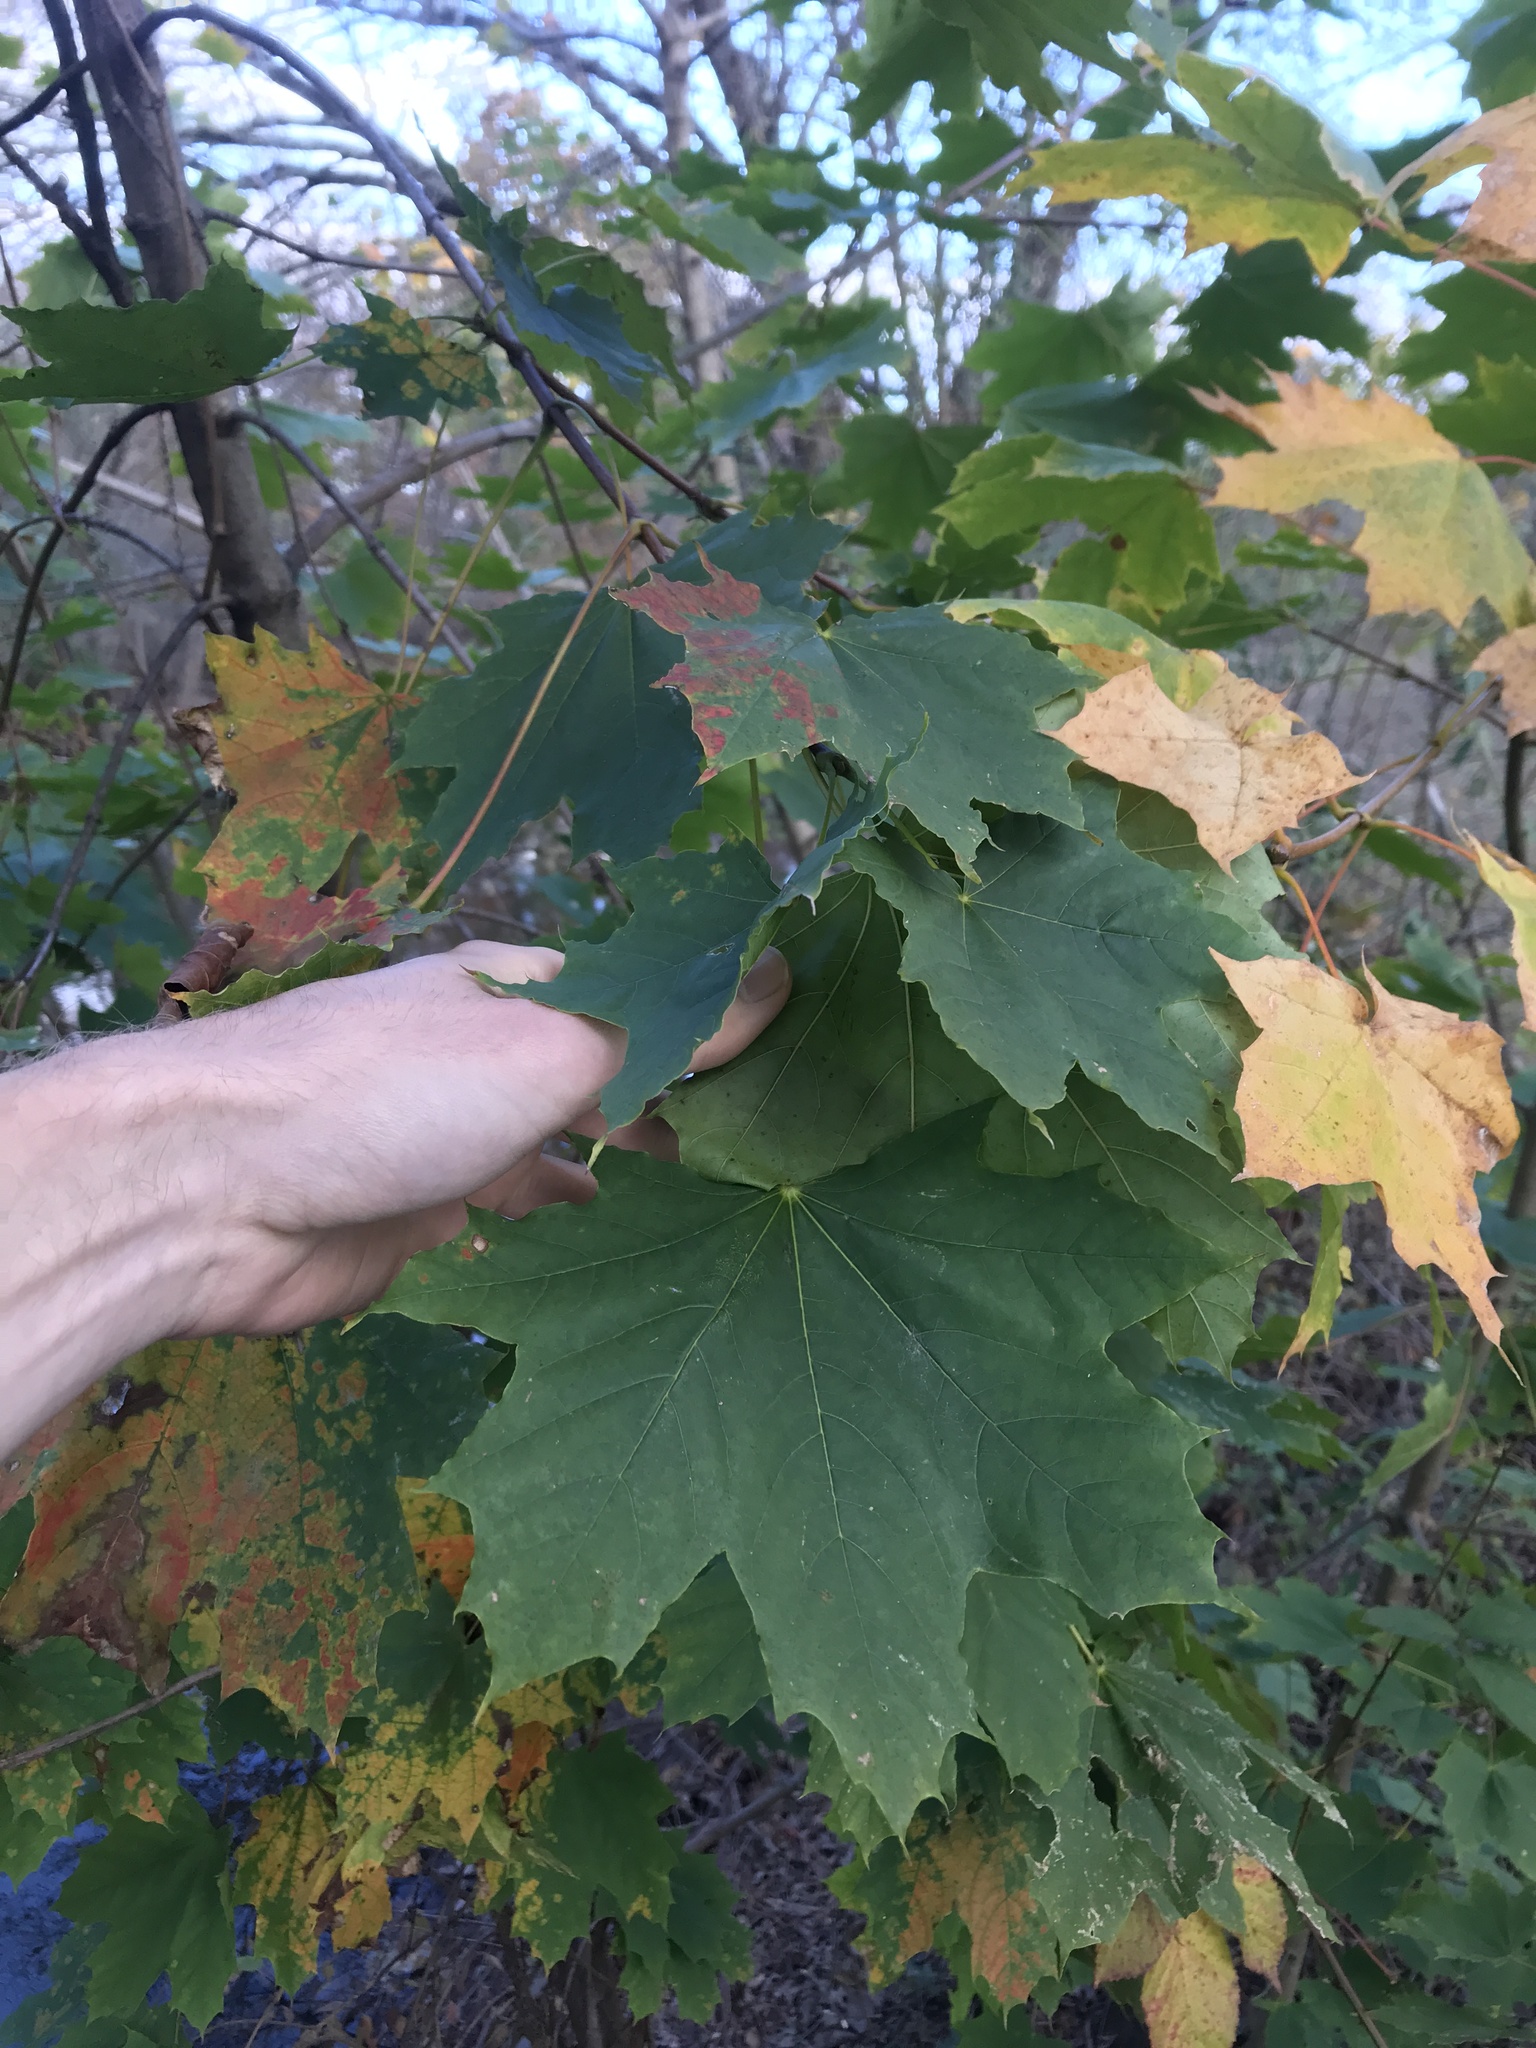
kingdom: Plantae
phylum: Tracheophyta
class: Magnoliopsida
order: Sapindales
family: Sapindaceae
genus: Acer
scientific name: Acer platanoides
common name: Norway maple
